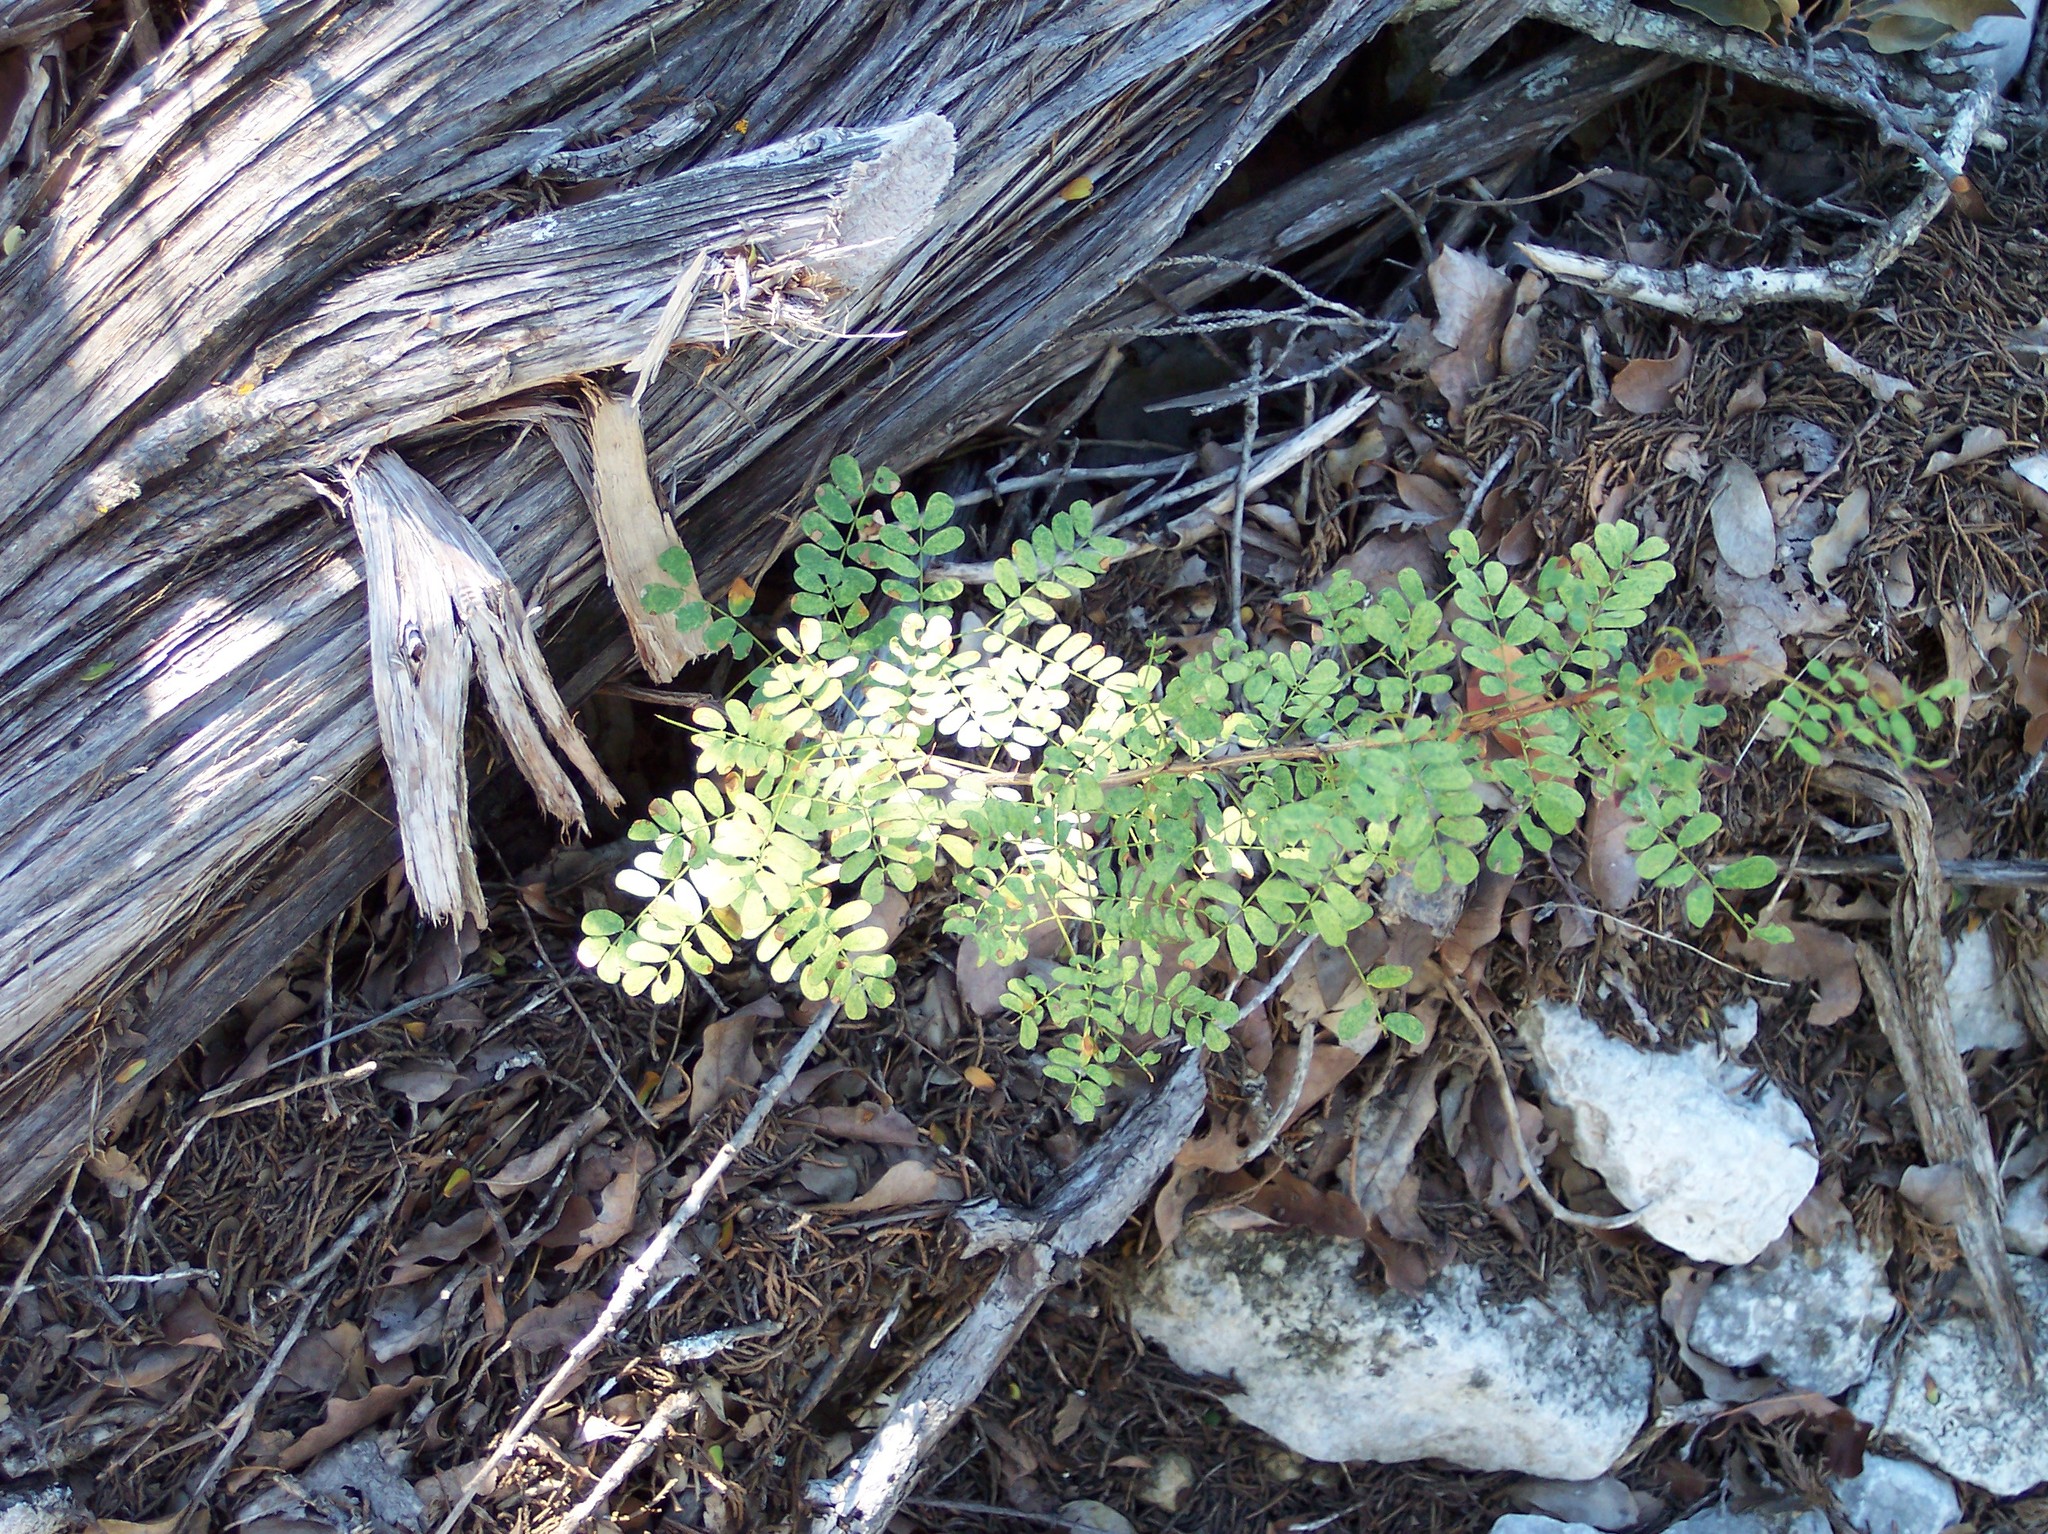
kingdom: Plantae
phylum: Tracheophyta
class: Magnoliopsida
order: Fabales
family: Fabaceae
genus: Senegalia
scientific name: Senegalia roemeriana
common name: Roemer's acacia
